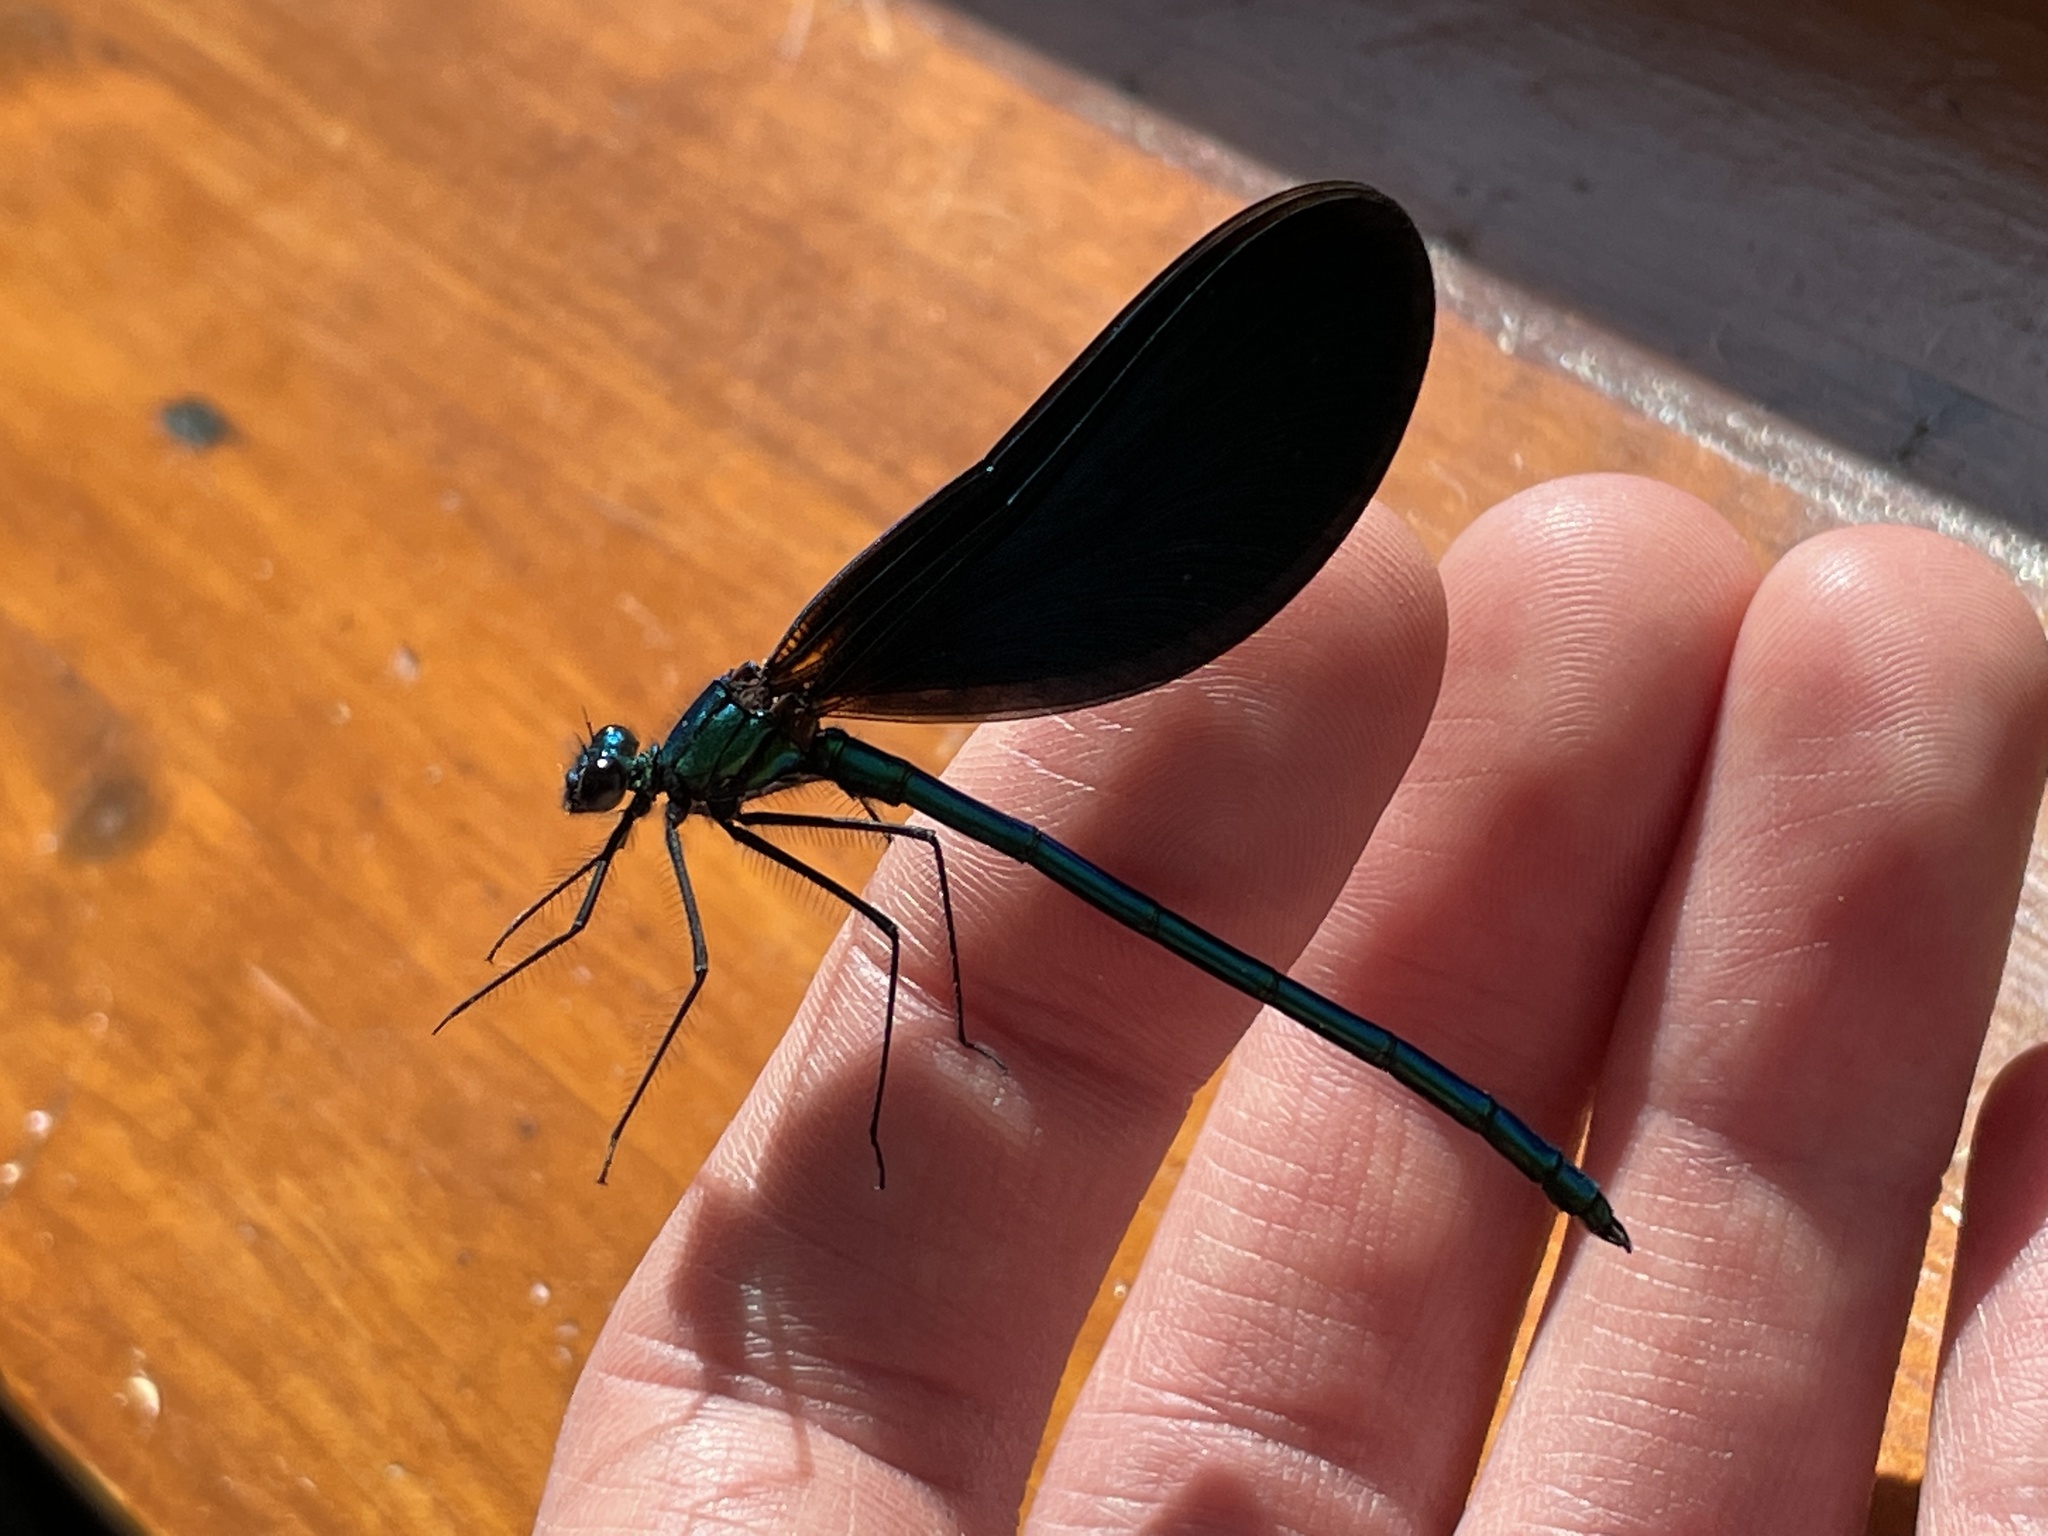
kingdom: Animalia
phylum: Arthropoda
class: Insecta
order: Odonata
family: Calopterygidae
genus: Calopteryx
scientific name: Calopteryx virgo
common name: Beautiful demoiselle
